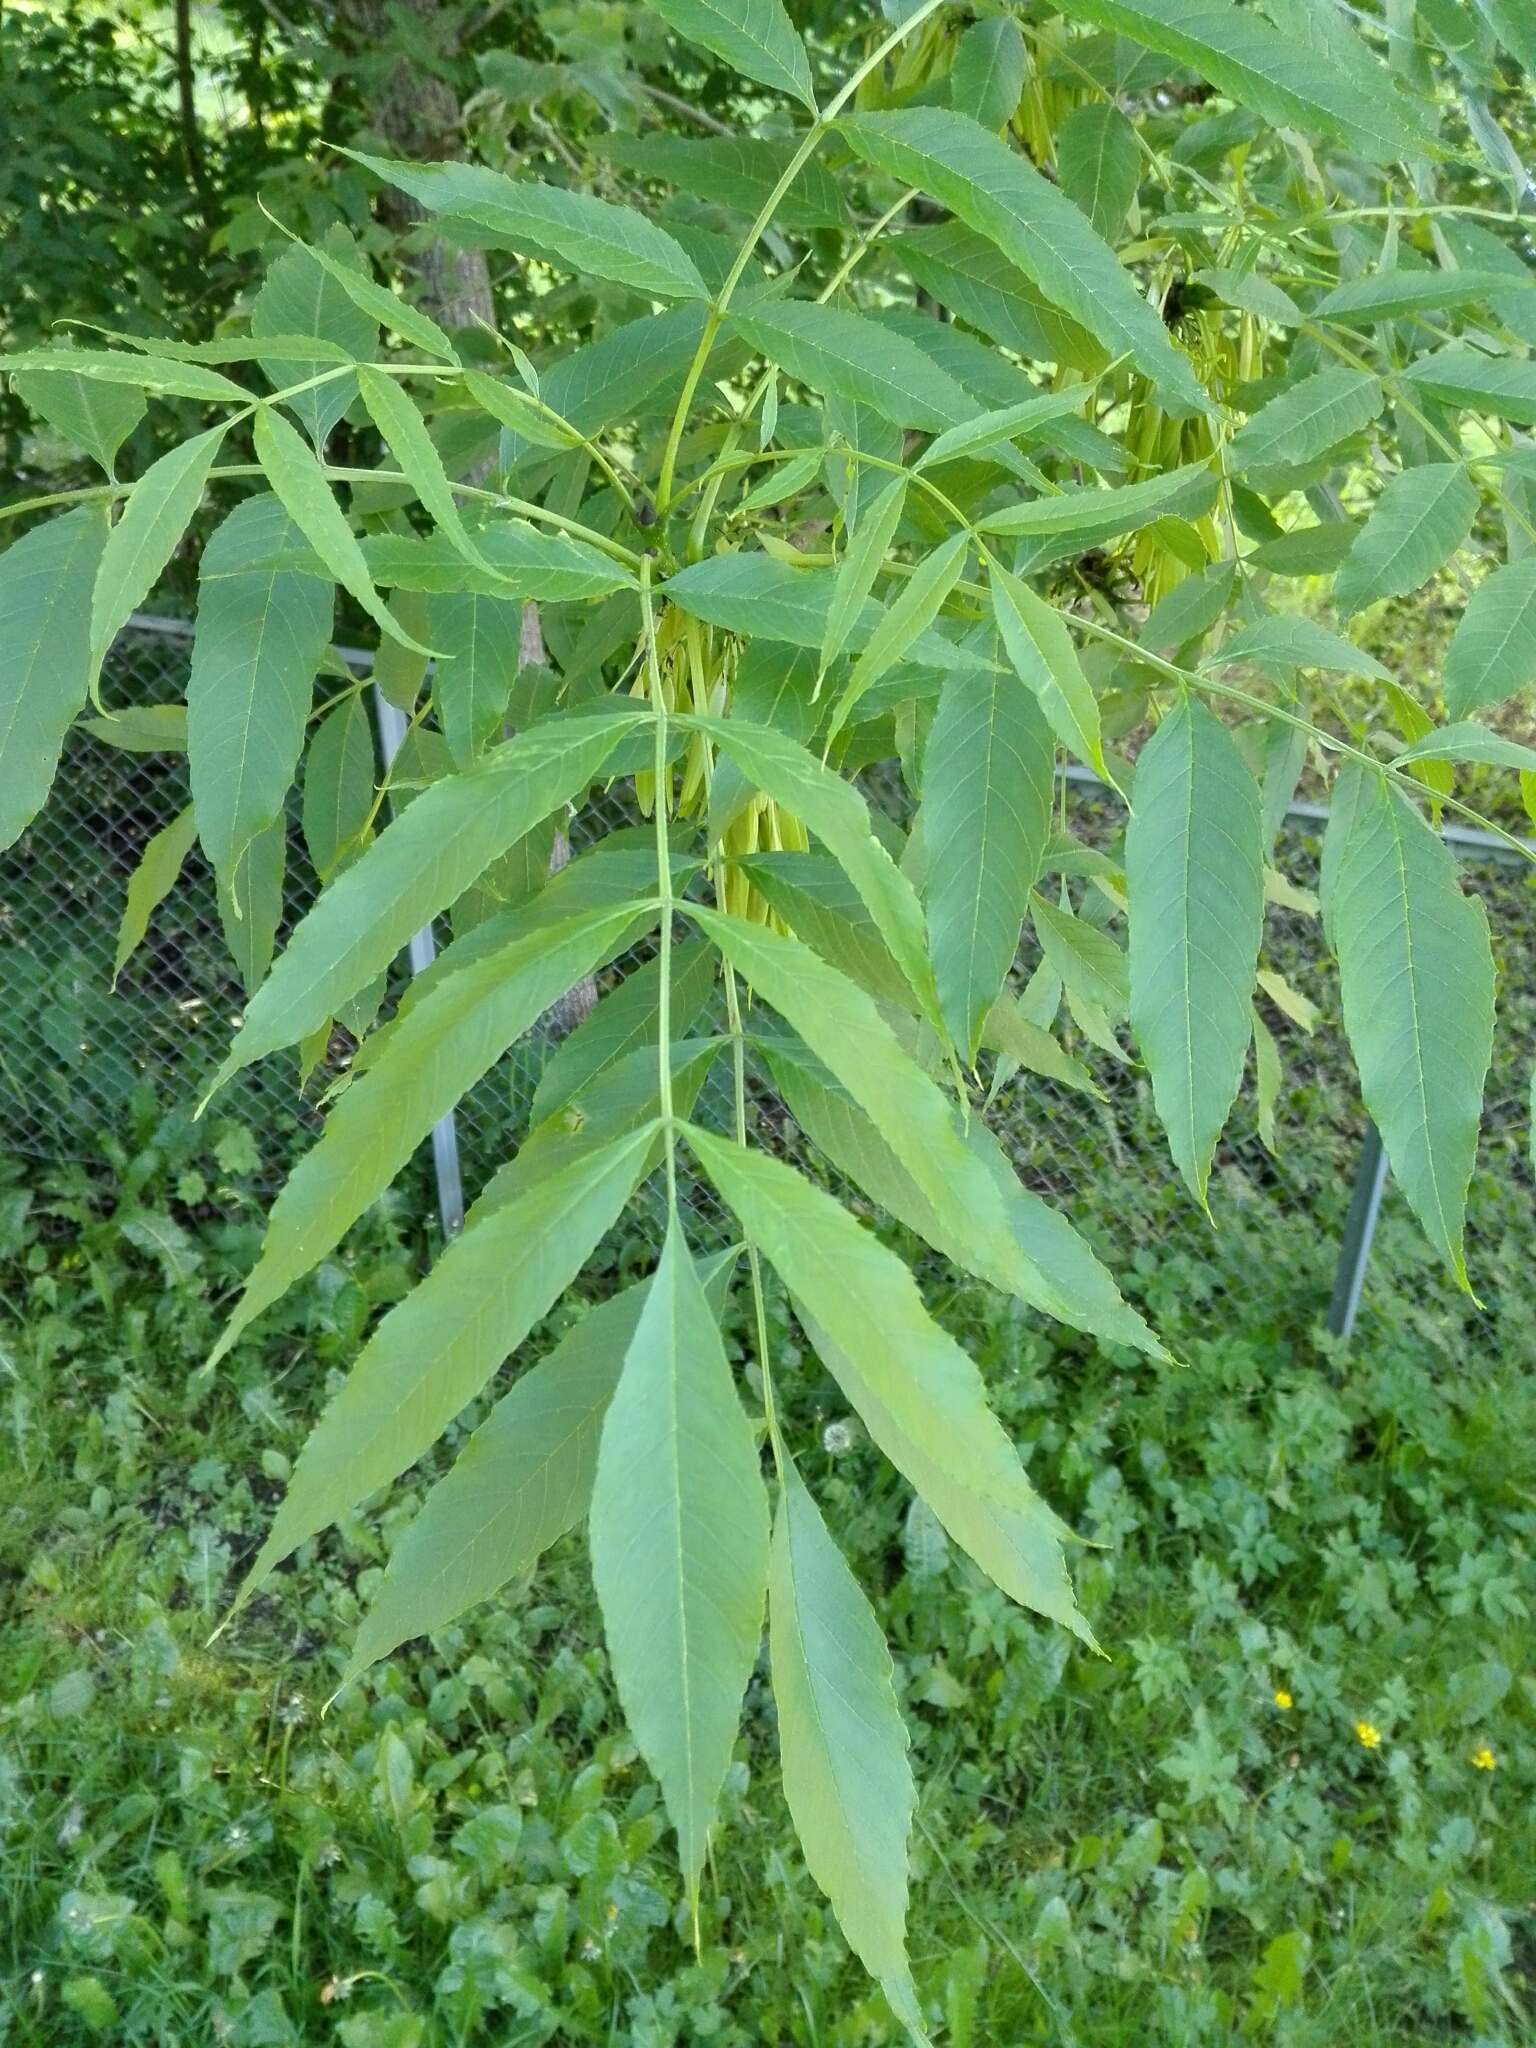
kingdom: Plantae
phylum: Tracheophyta
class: Magnoliopsida
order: Lamiales
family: Oleaceae
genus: Fraxinus
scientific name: Fraxinus excelsior
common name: European ash
